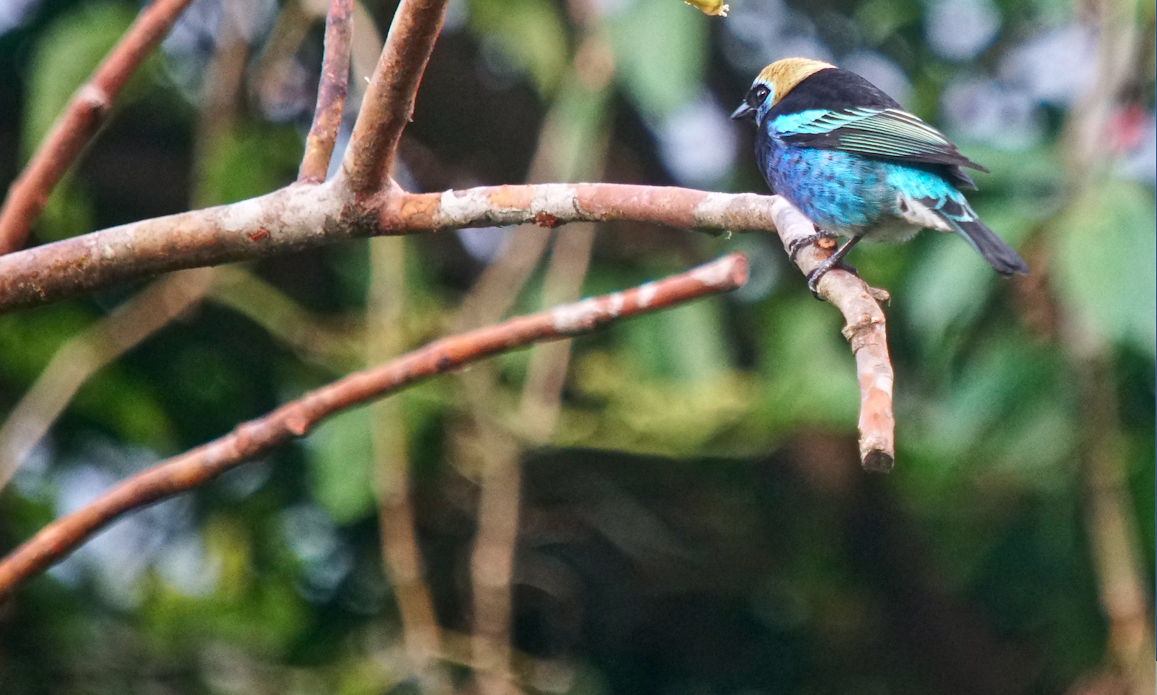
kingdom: Animalia
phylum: Chordata
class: Aves
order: Passeriformes
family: Thraupidae
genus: Stilpnia
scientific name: Stilpnia larvata
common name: Golden-hooded tanager
